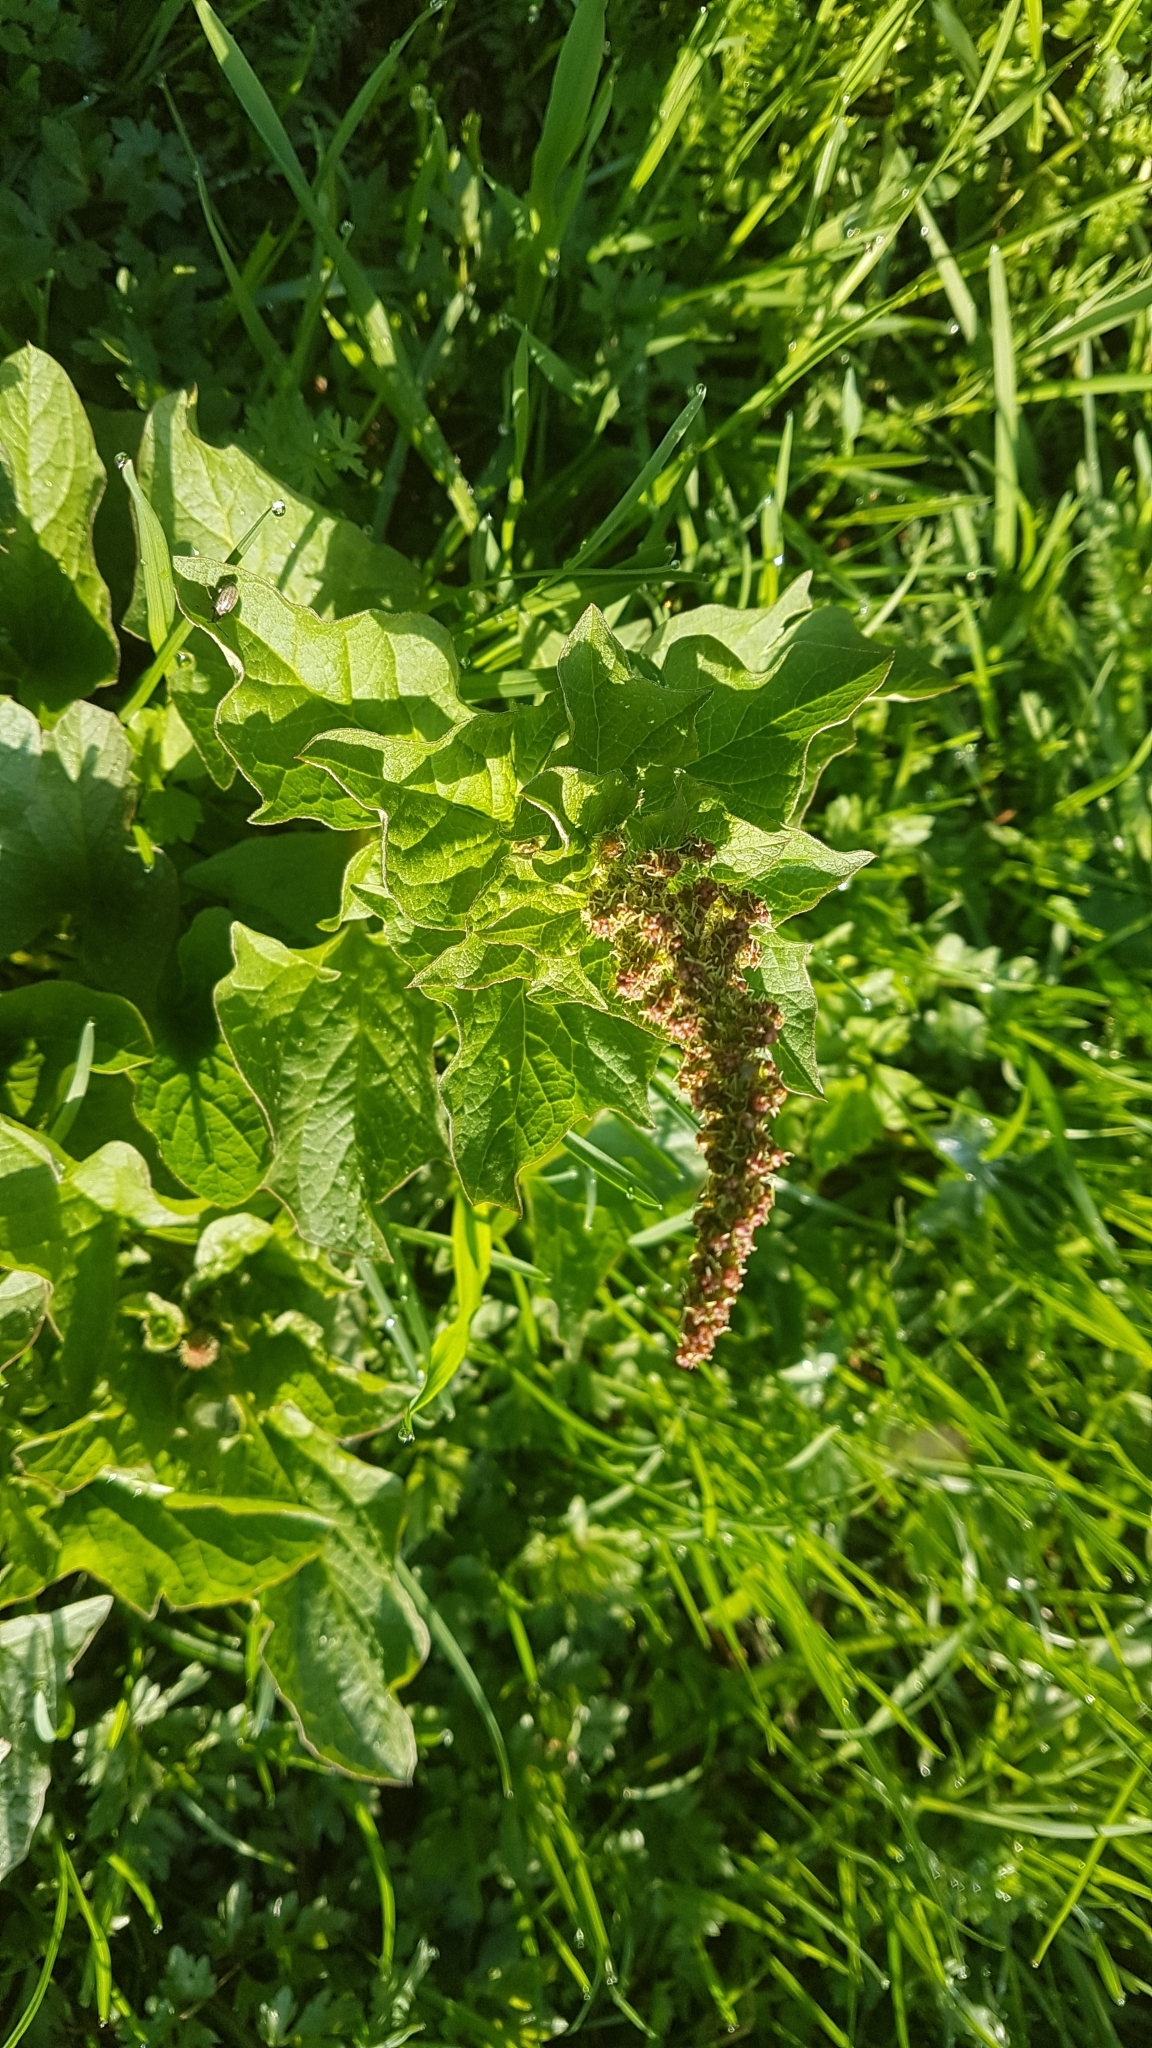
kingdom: Plantae
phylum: Tracheophyta
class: Magnoliopsida
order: Caryophyllales
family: Amaranthaceae
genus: Blitum
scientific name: Blitum bonus-henricus
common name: Good king henry
